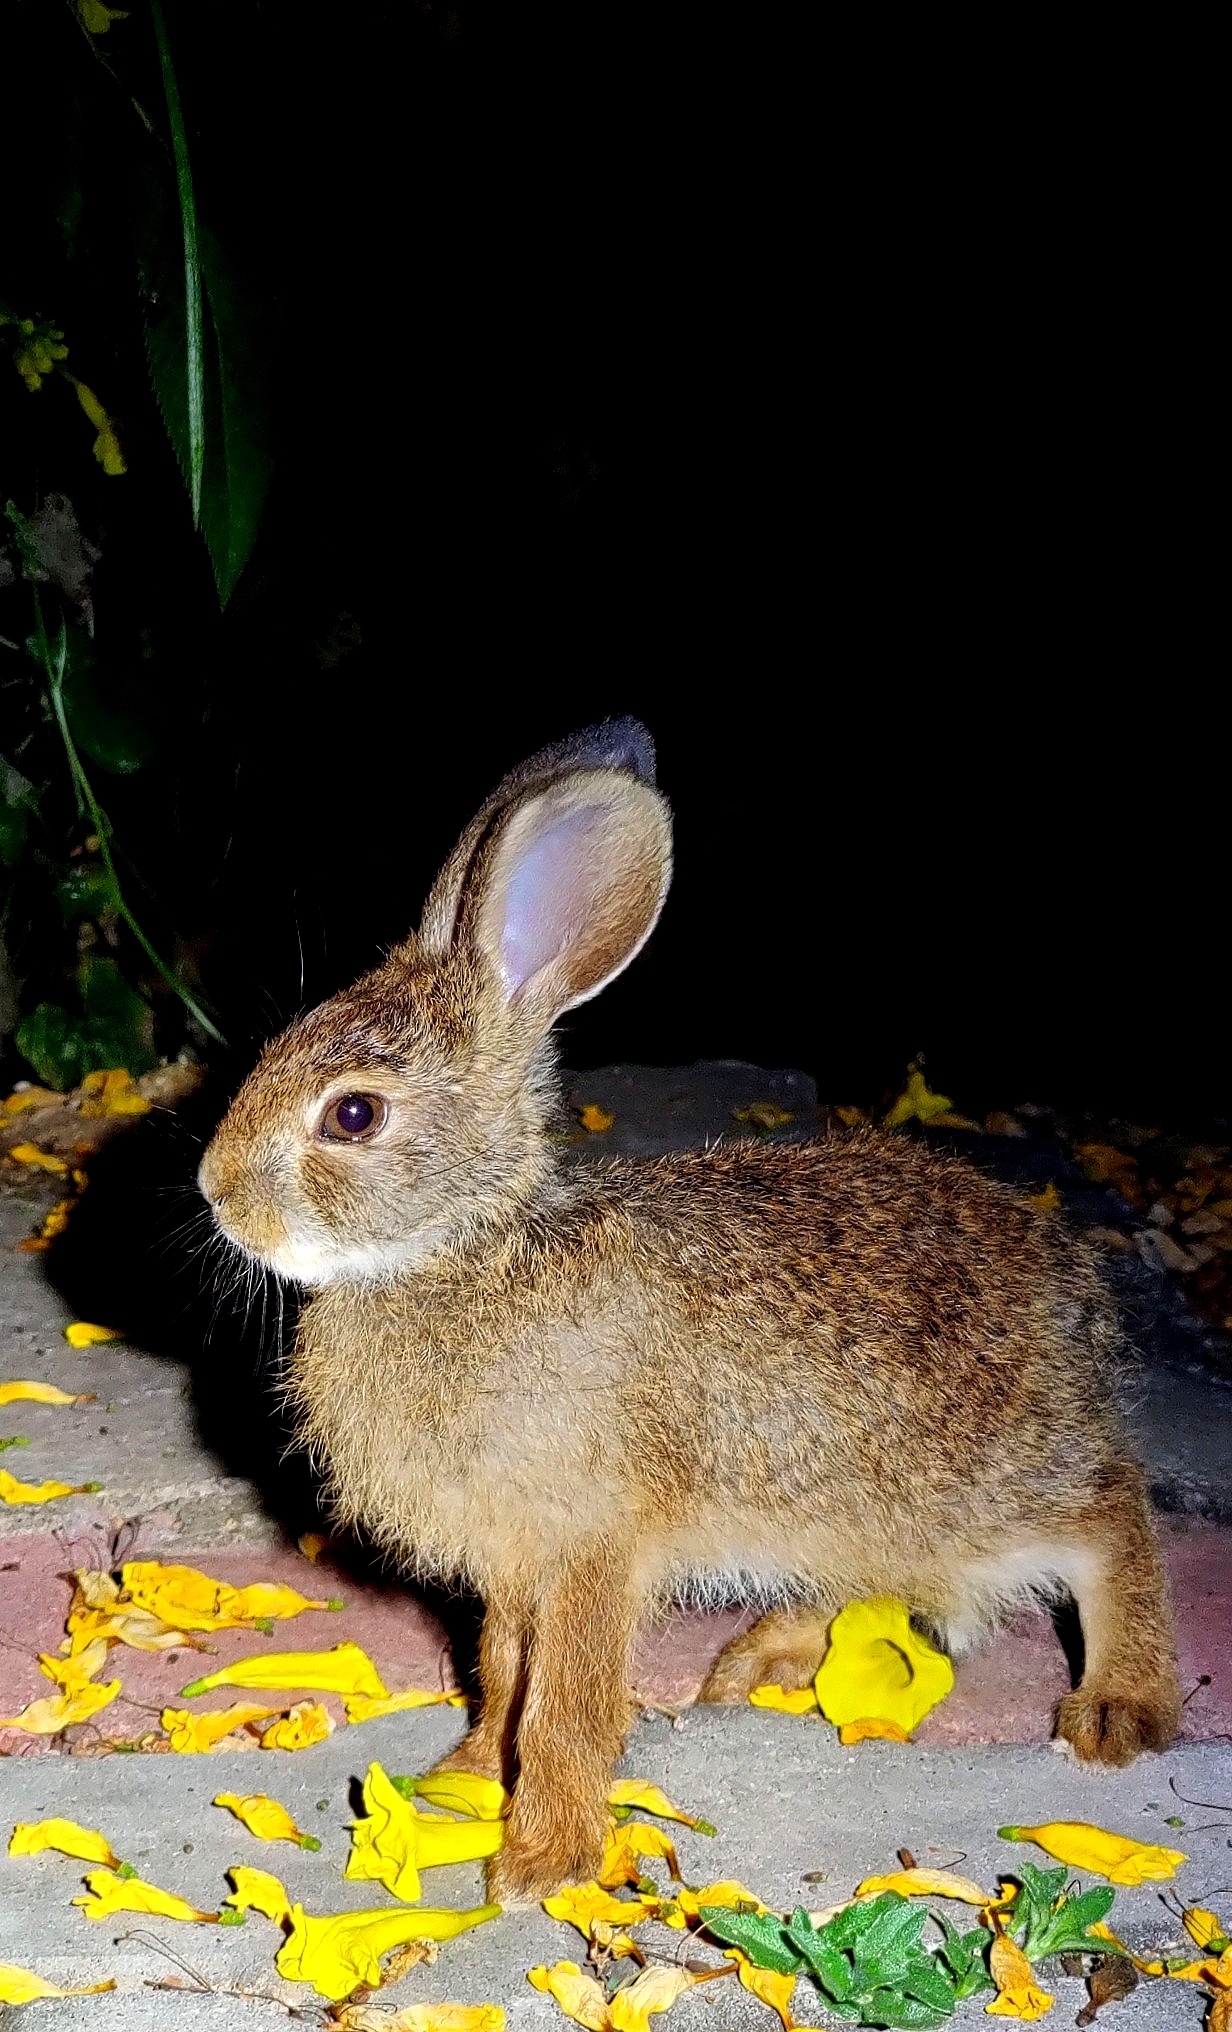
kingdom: Animalia
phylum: Chordata
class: Mammalia
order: Lagomorpha
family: Leporidae
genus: Lepus
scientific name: Lepus nigricollis
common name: Indian hare
